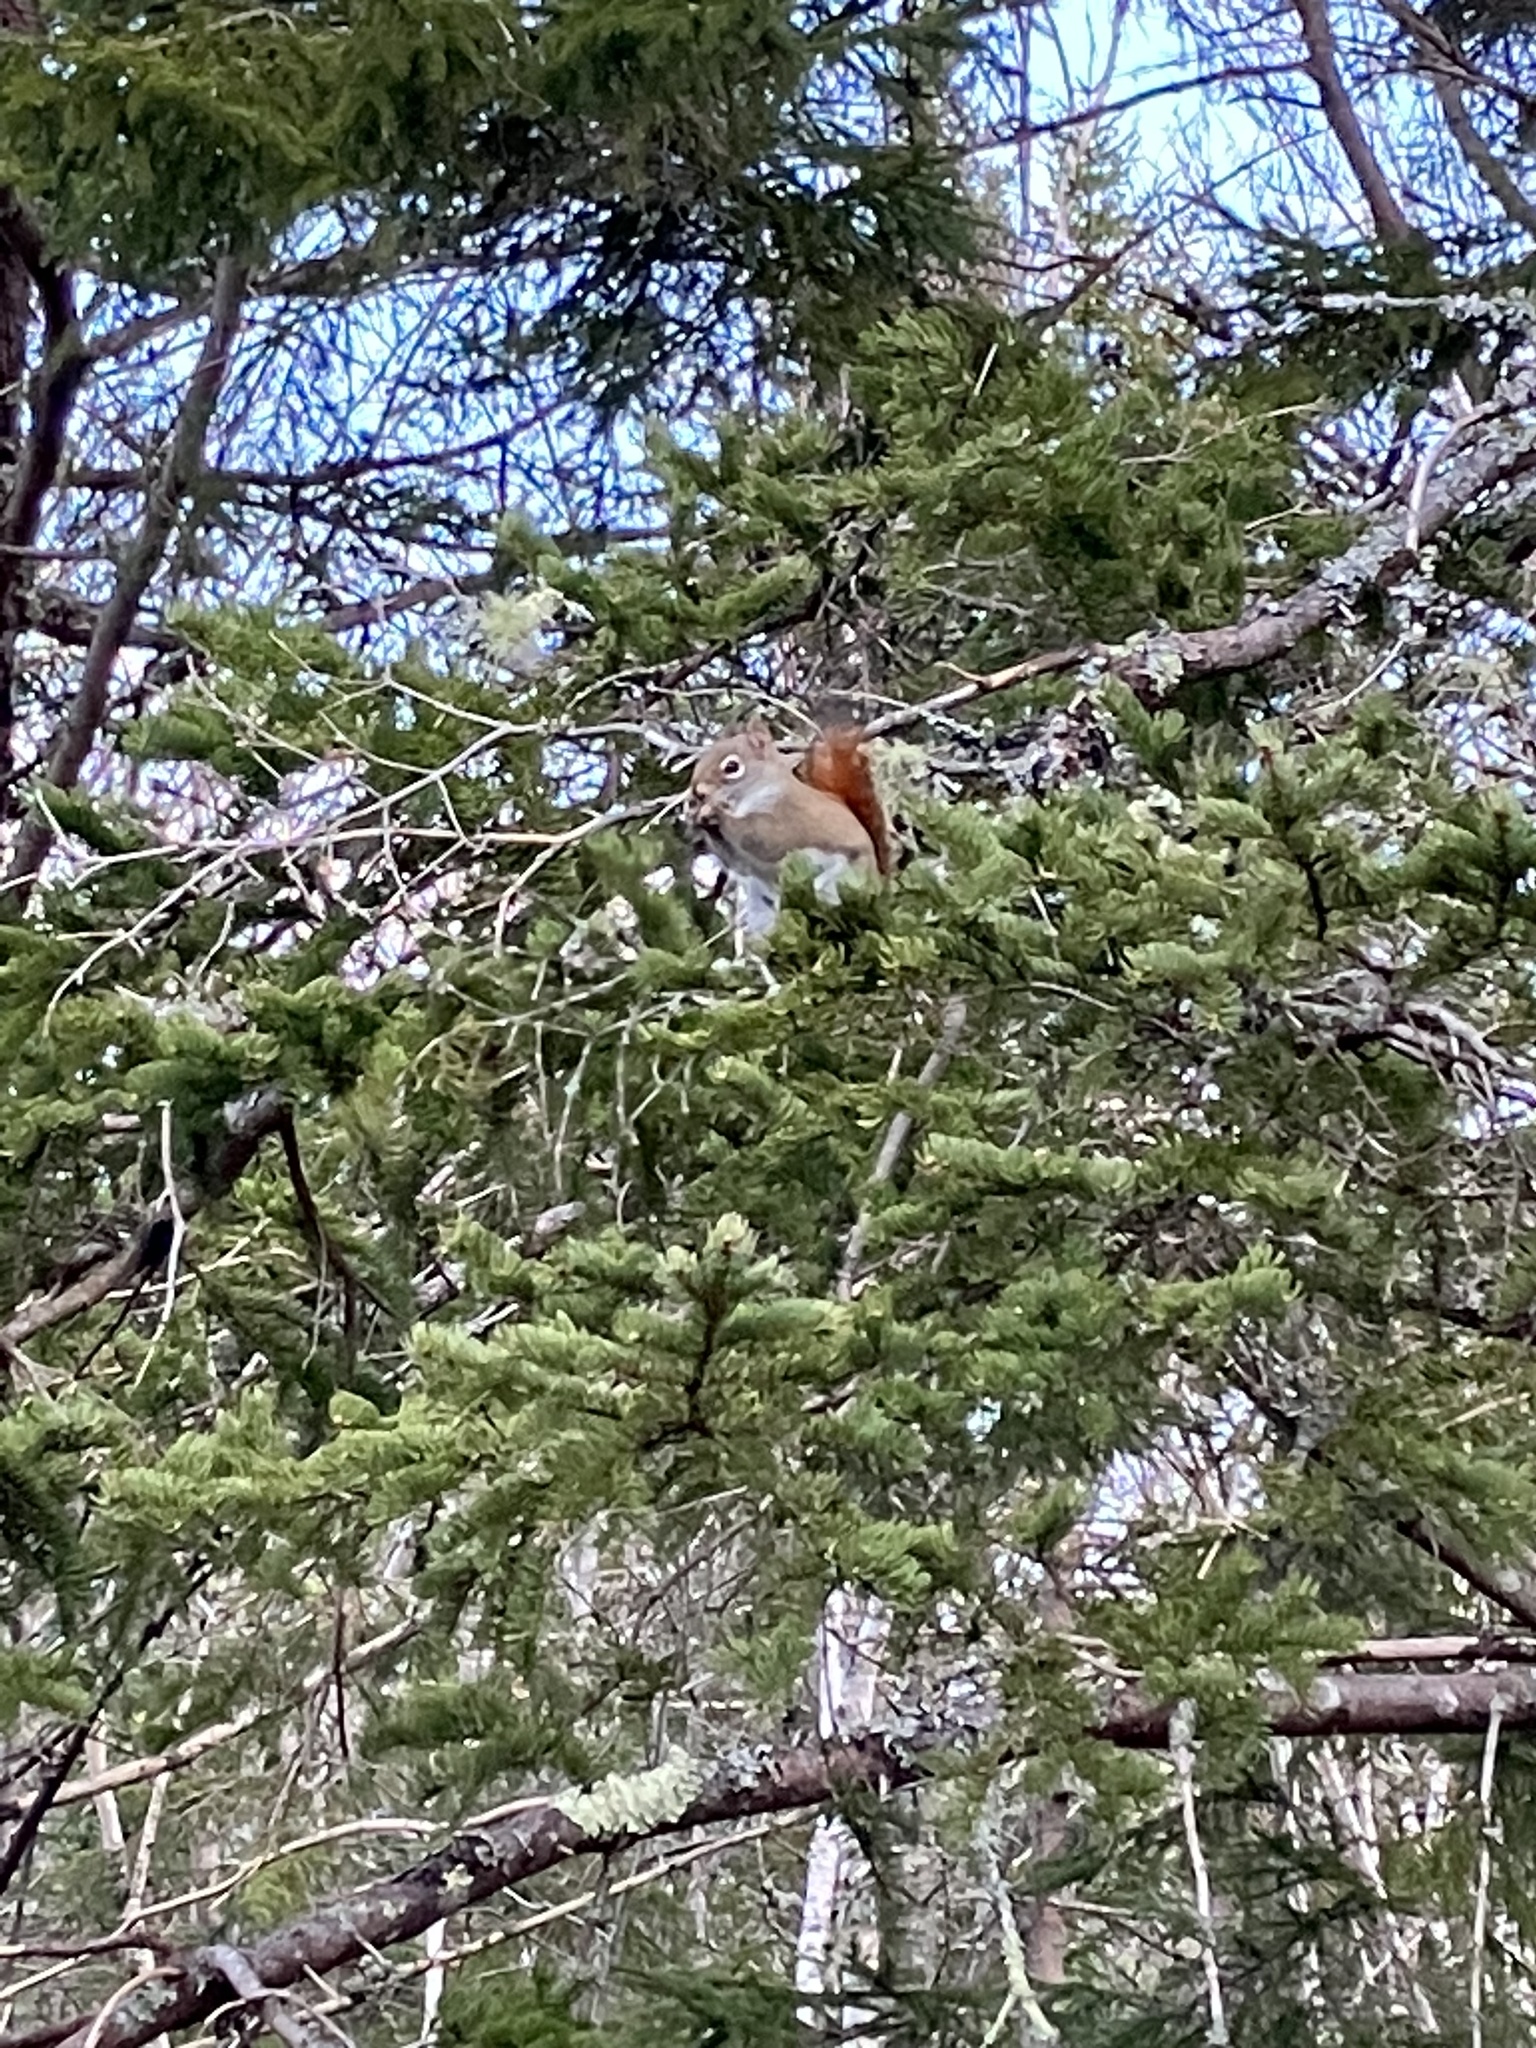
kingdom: Animalia
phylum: Chordata
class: Mammalia
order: Rodentia
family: Sciuridae
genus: Tamiasciurus
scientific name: Tamiasciurus hudsonicus
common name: Red squirrel
